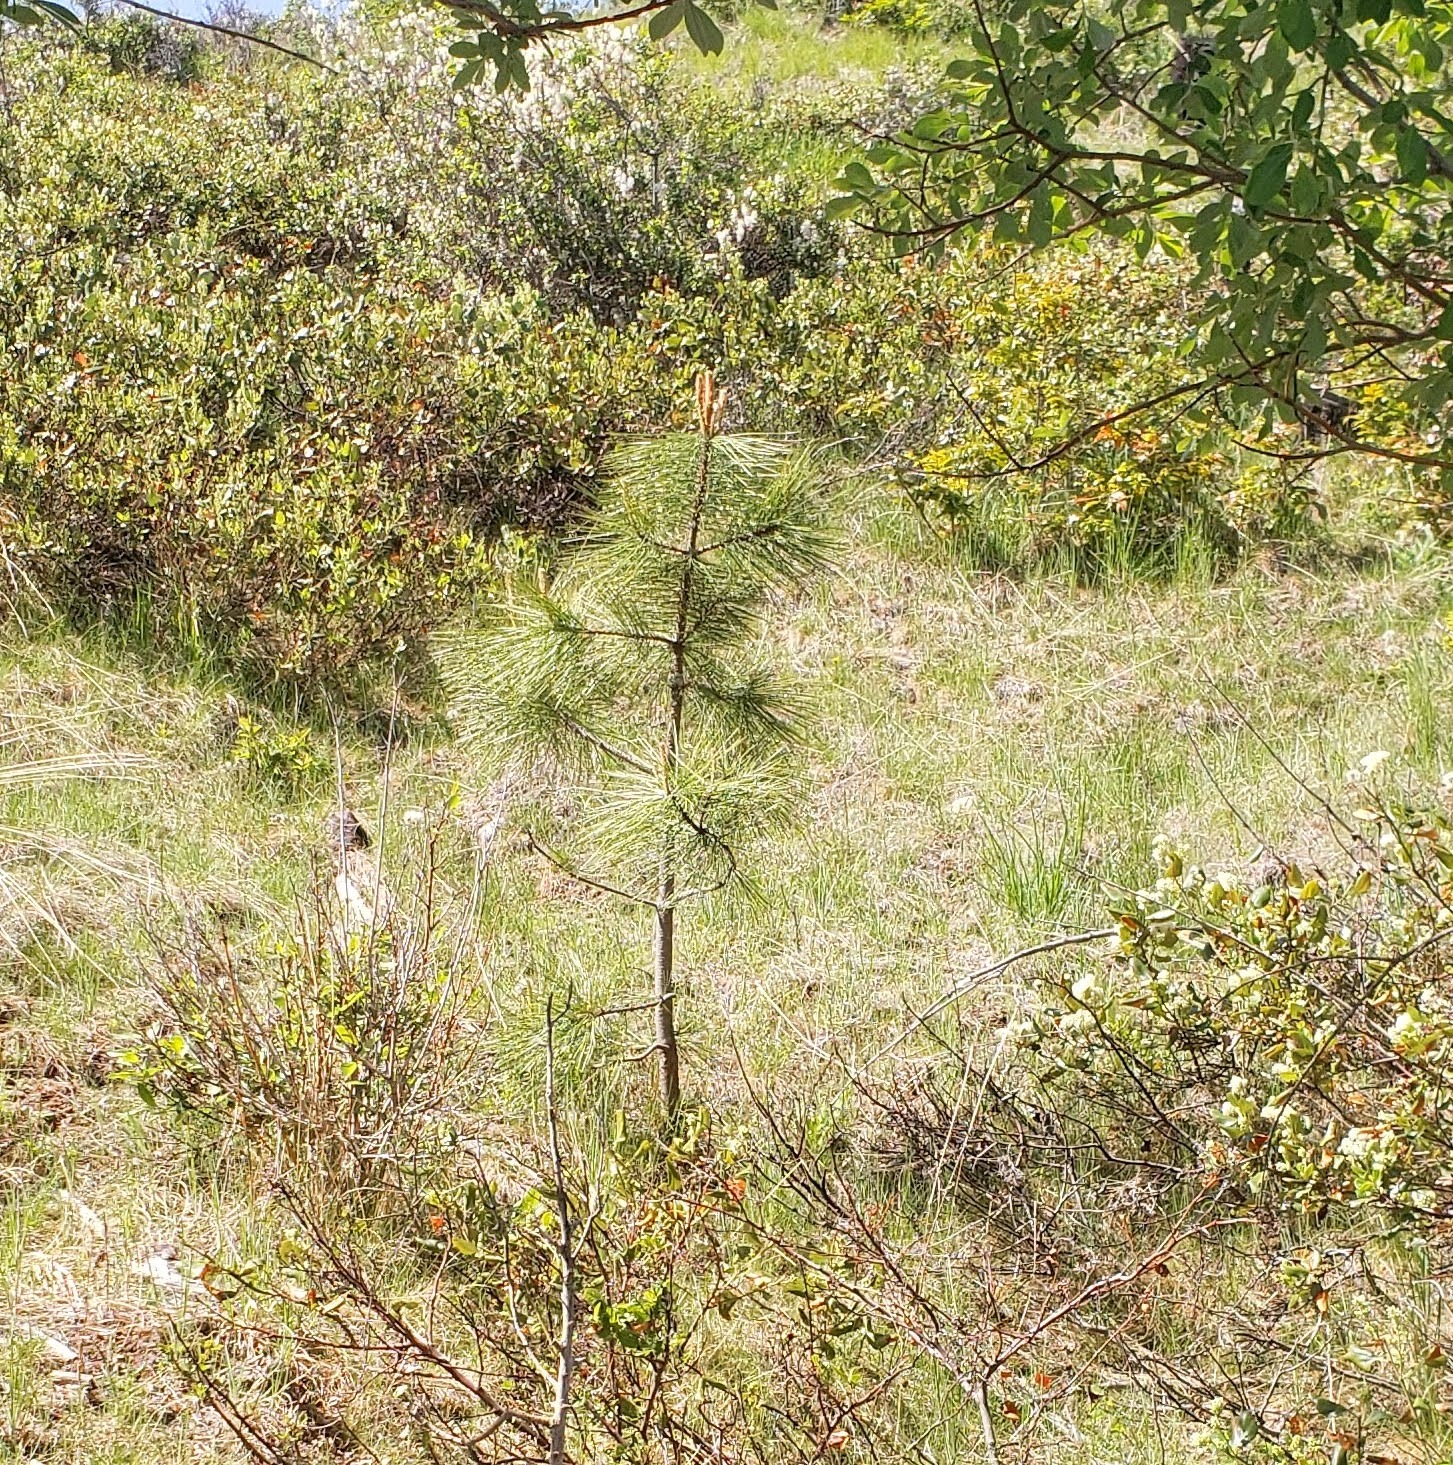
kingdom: Plantae
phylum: Tracheophyta
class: Pinopsida
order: Pinales
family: Pinaceae
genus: Pinus
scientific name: Pinus ponderosa
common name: Western yellow-pine
